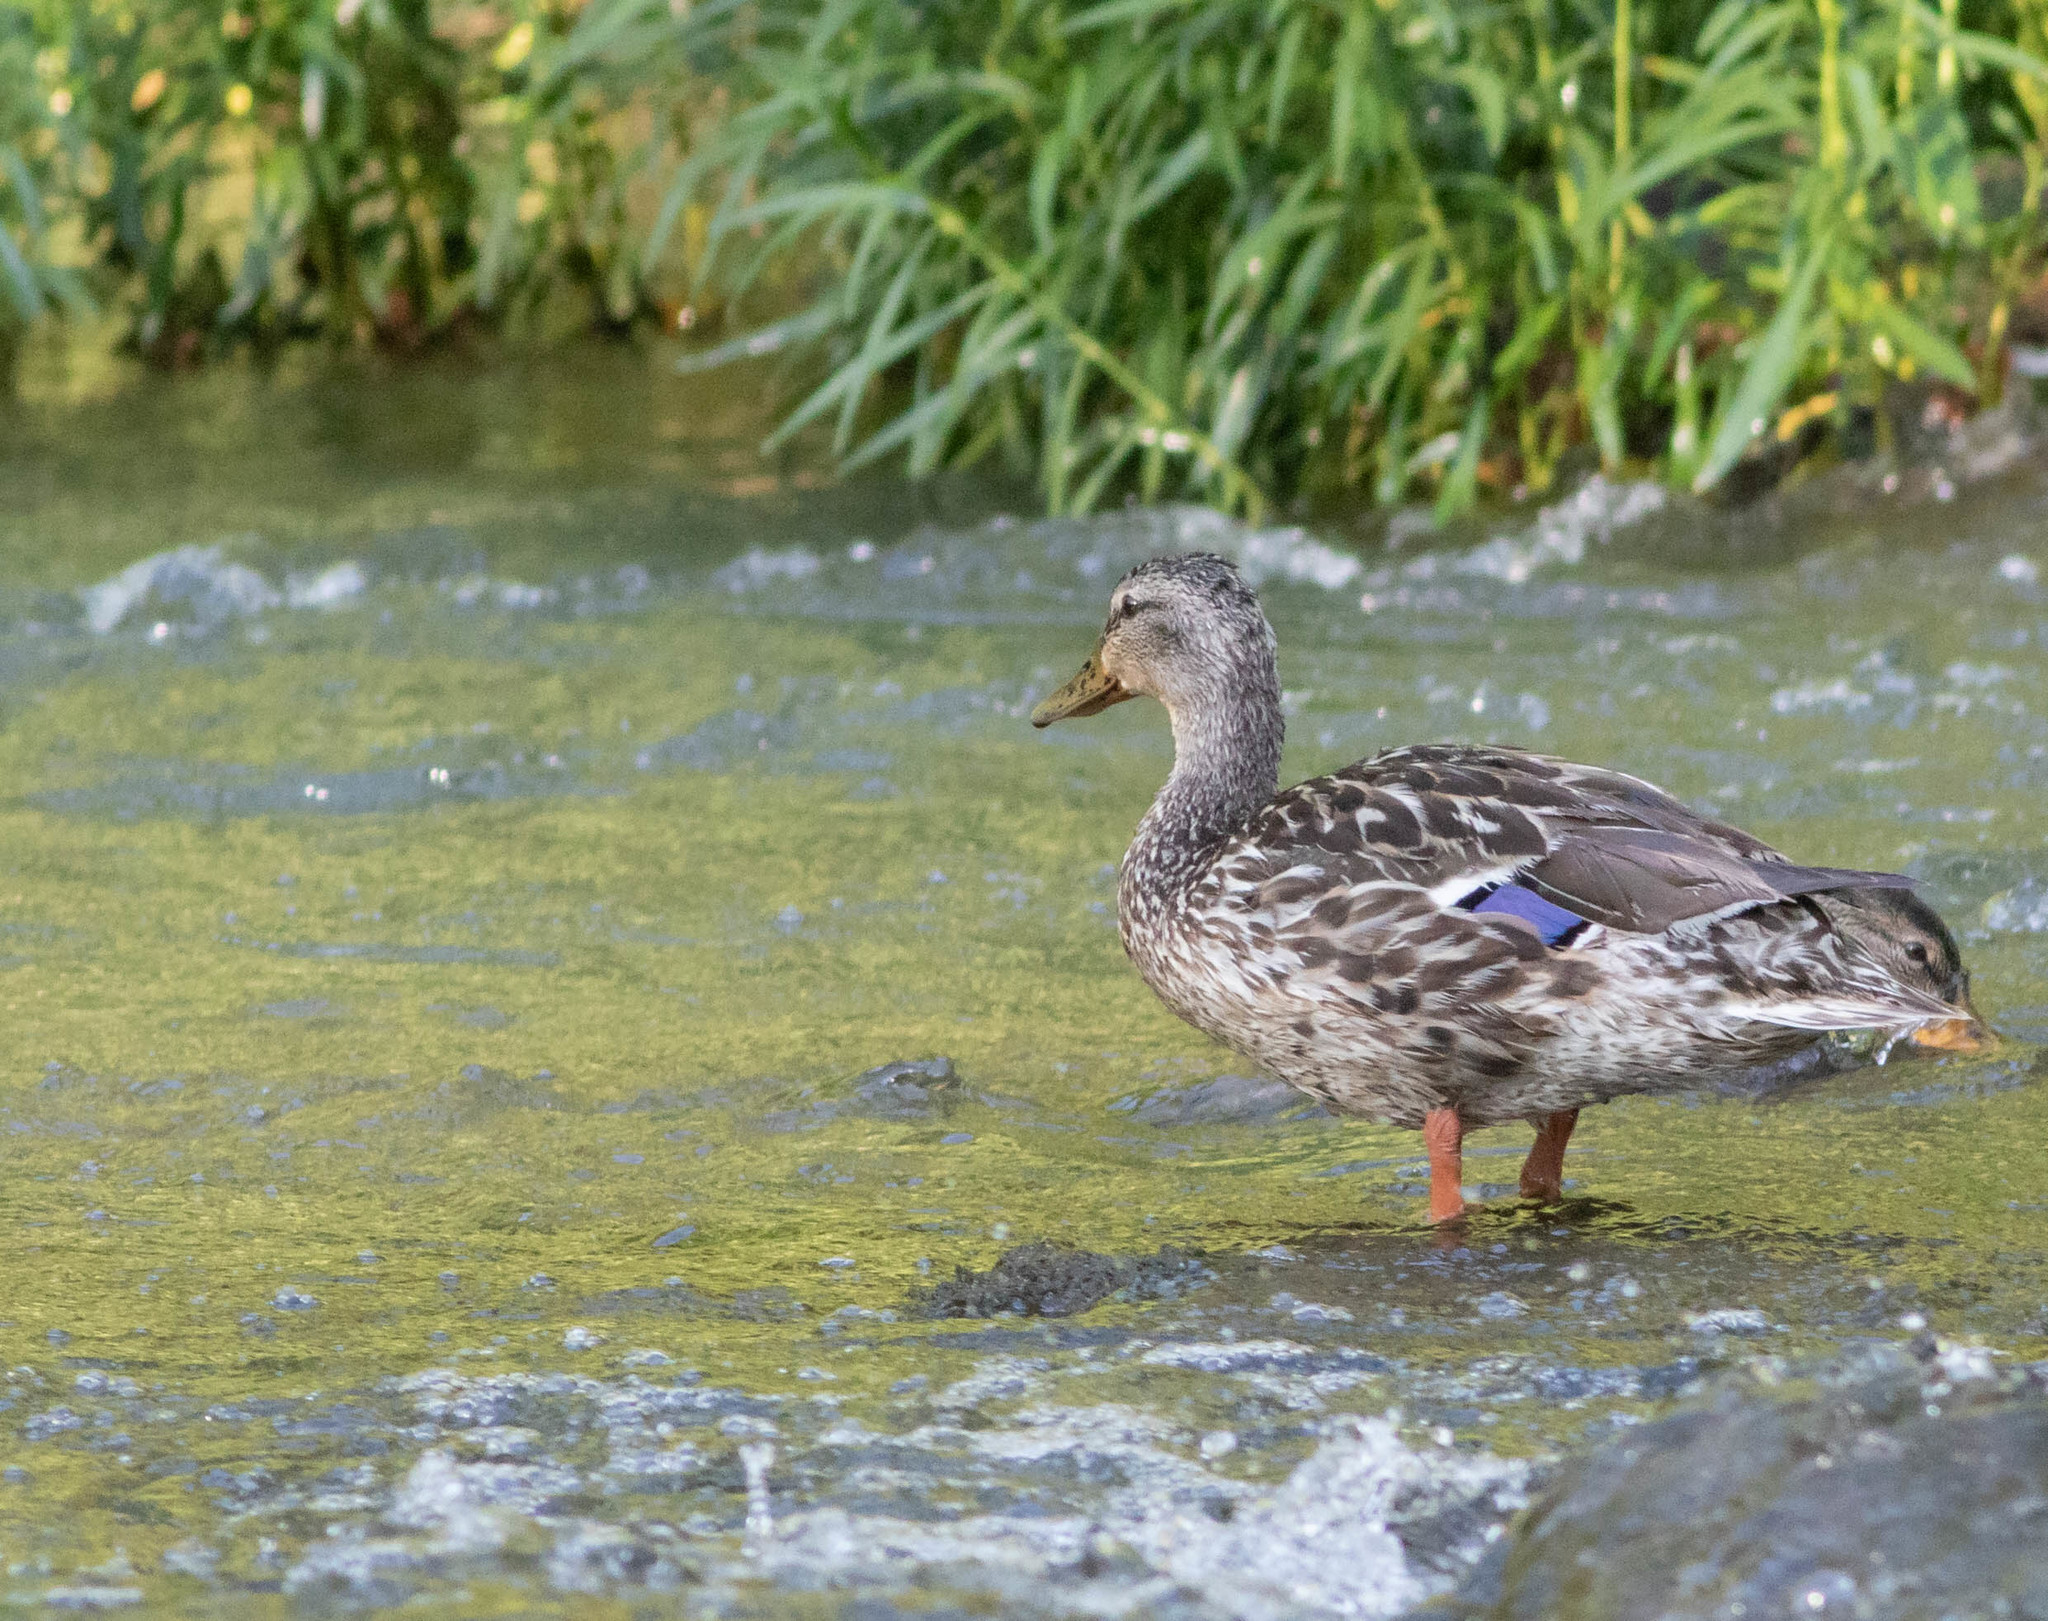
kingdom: Animalia
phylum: Chordata
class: Aves
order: Anseriformes
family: Anatidae
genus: Anas
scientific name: Anas platyrhynchos
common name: Mallard
